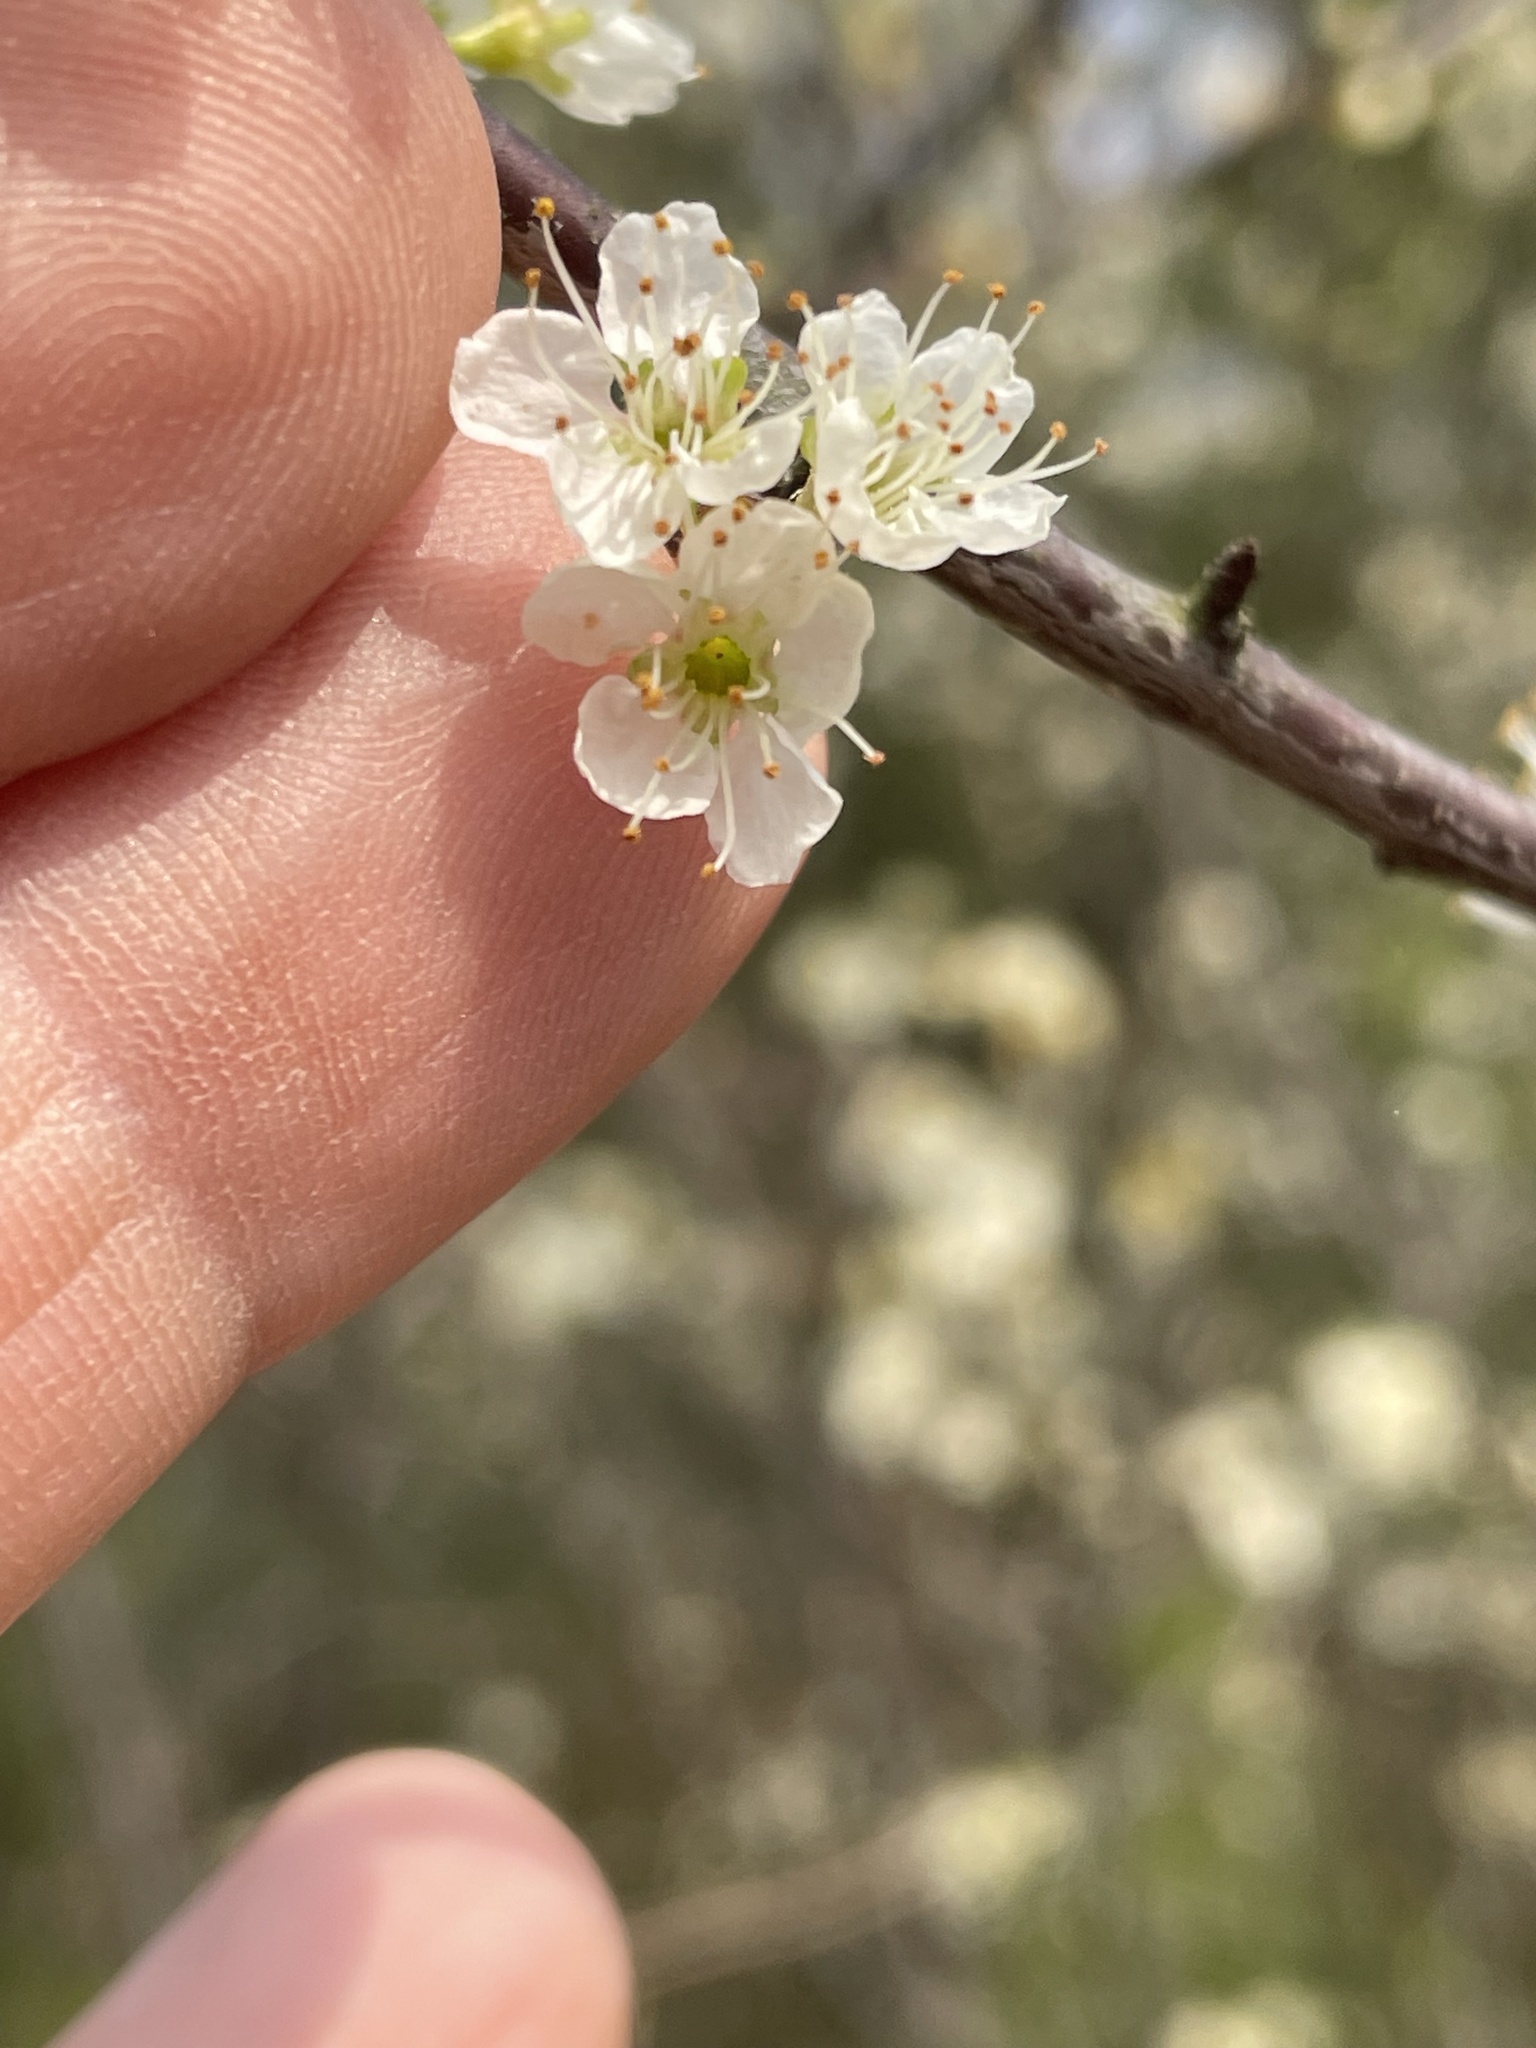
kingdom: Plantae
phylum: Tracheophyta
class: Magnoliopsida
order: Rosales
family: Rosaceae
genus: Prunus
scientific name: Prunus angustifolia
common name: Cherokee plum
